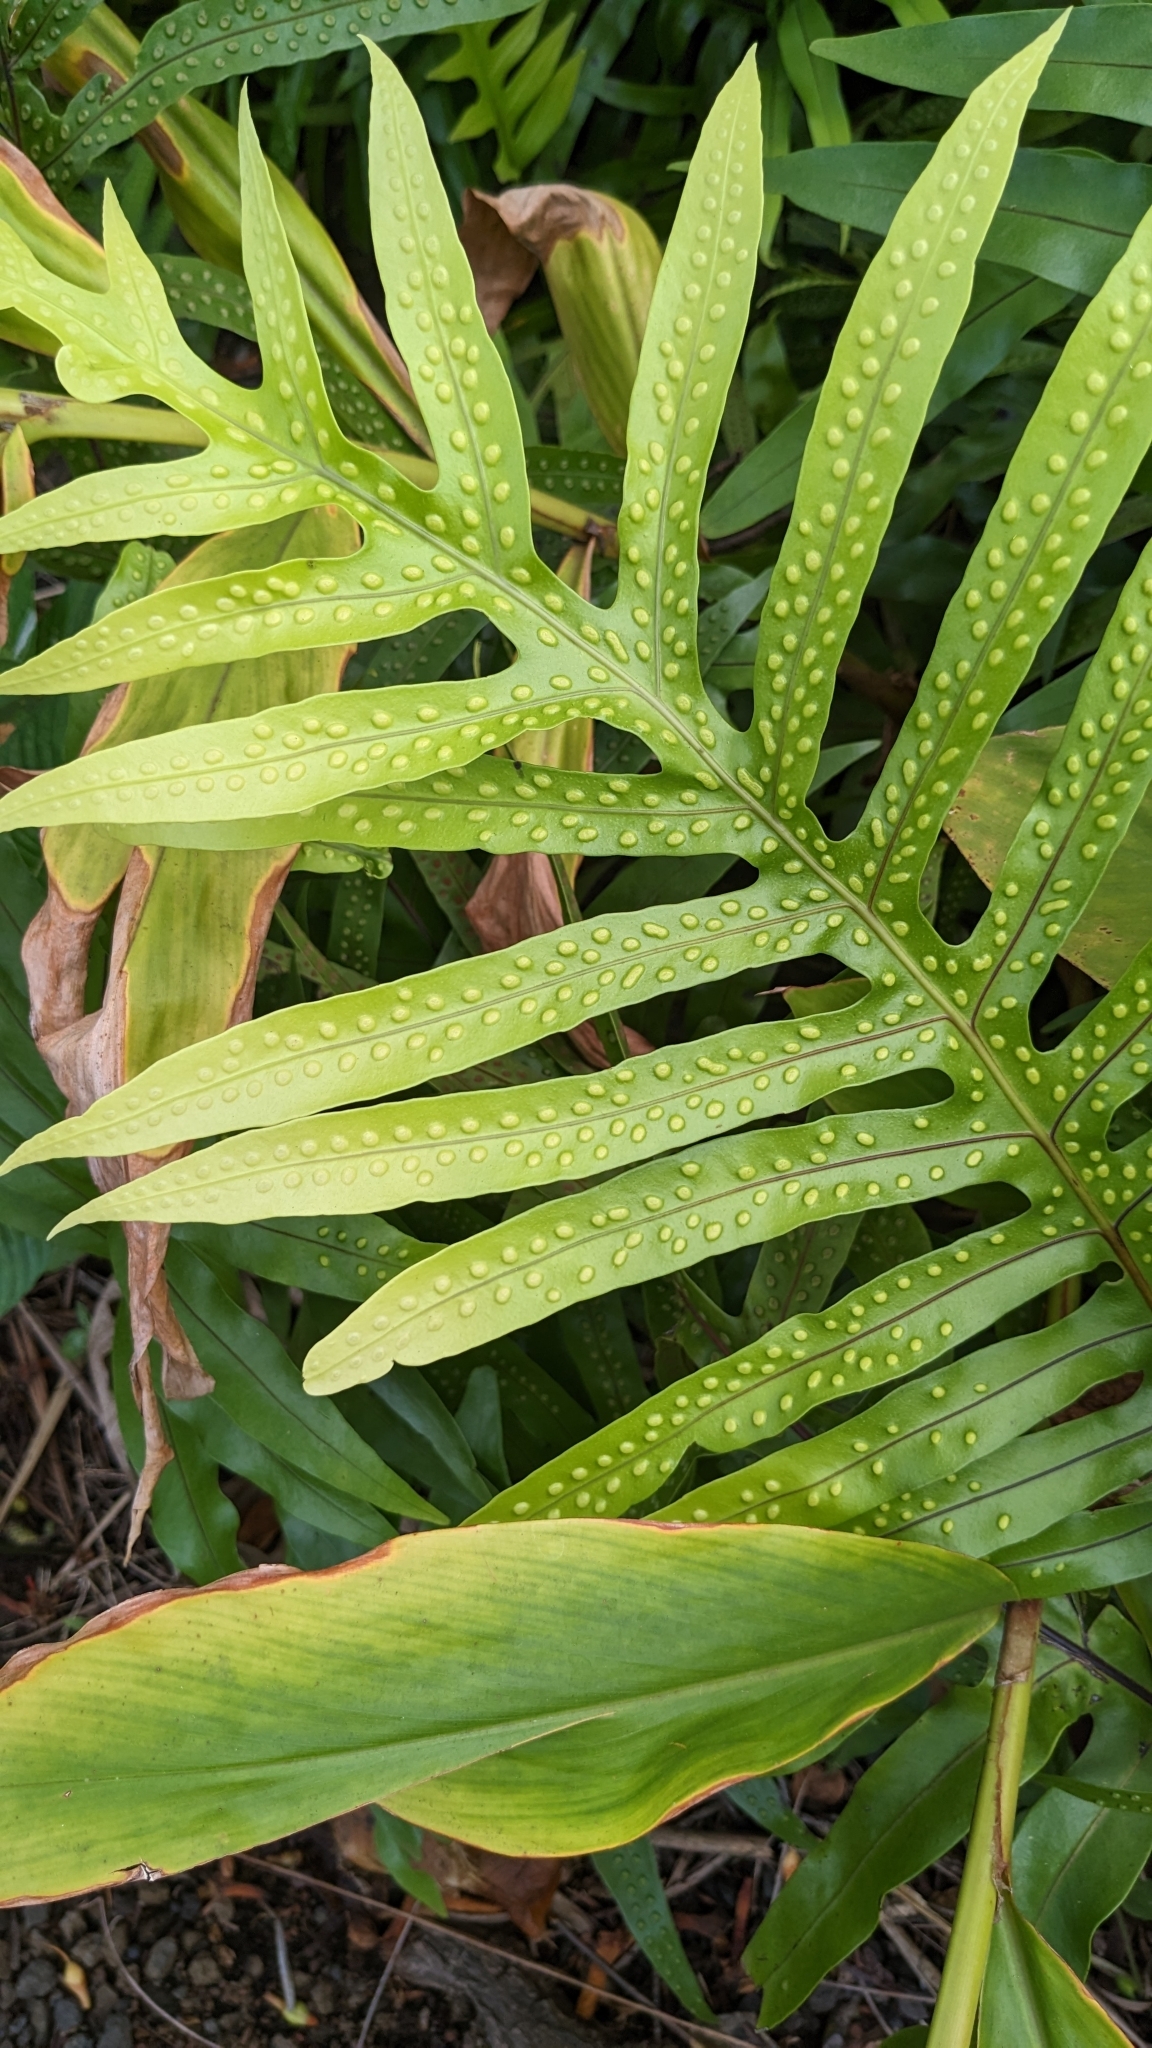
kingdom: Plantae
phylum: Tracheophyta
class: Polypodiopsida
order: Polypodiales
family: Polypodiaceae
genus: Microsorum
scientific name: Microsorum grossum
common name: Musk fern
